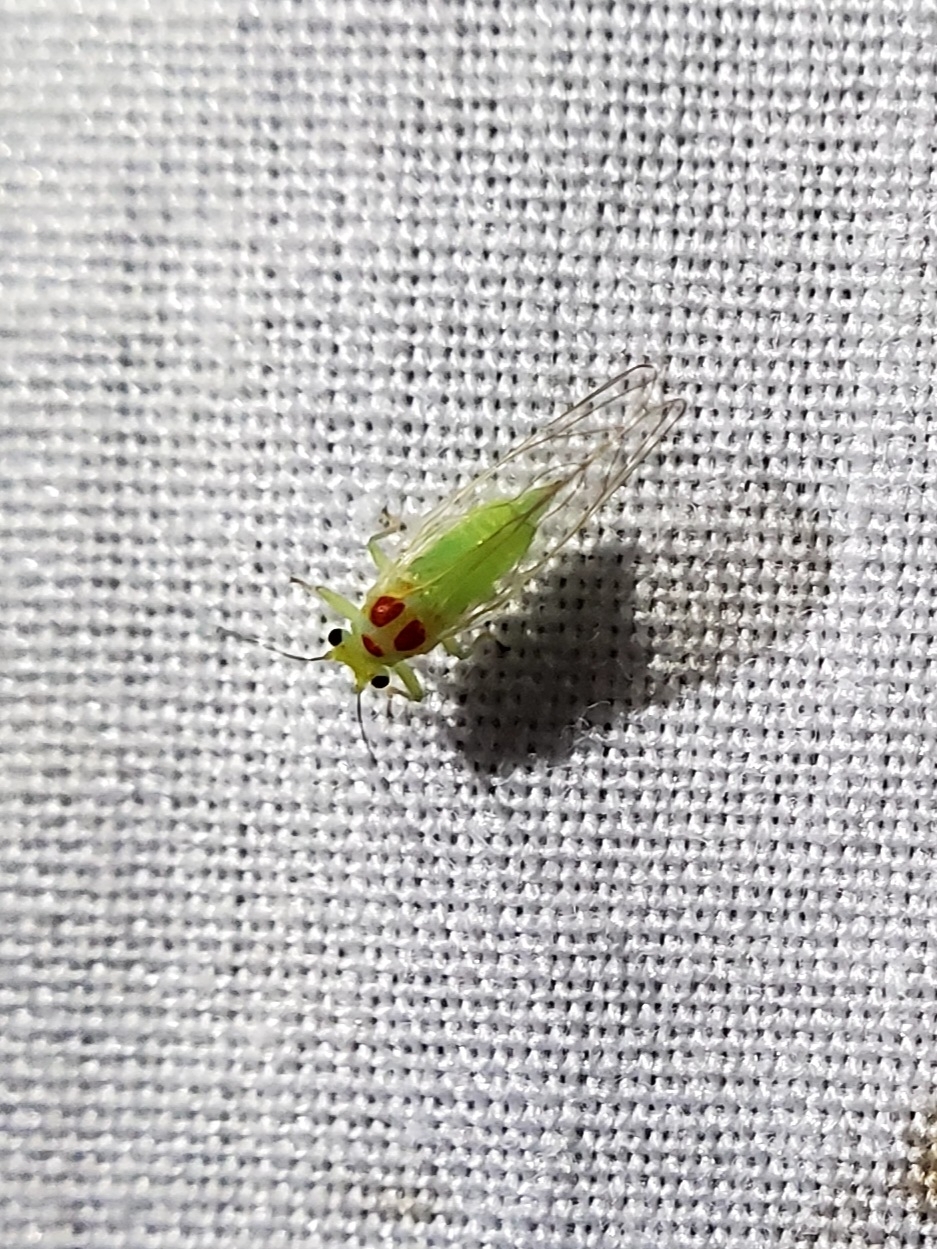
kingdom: Animalia
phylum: Arthropoda
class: Insecta
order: Hemiptera
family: Psyllidae
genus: Psylla
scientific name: Psylla sanguinea
